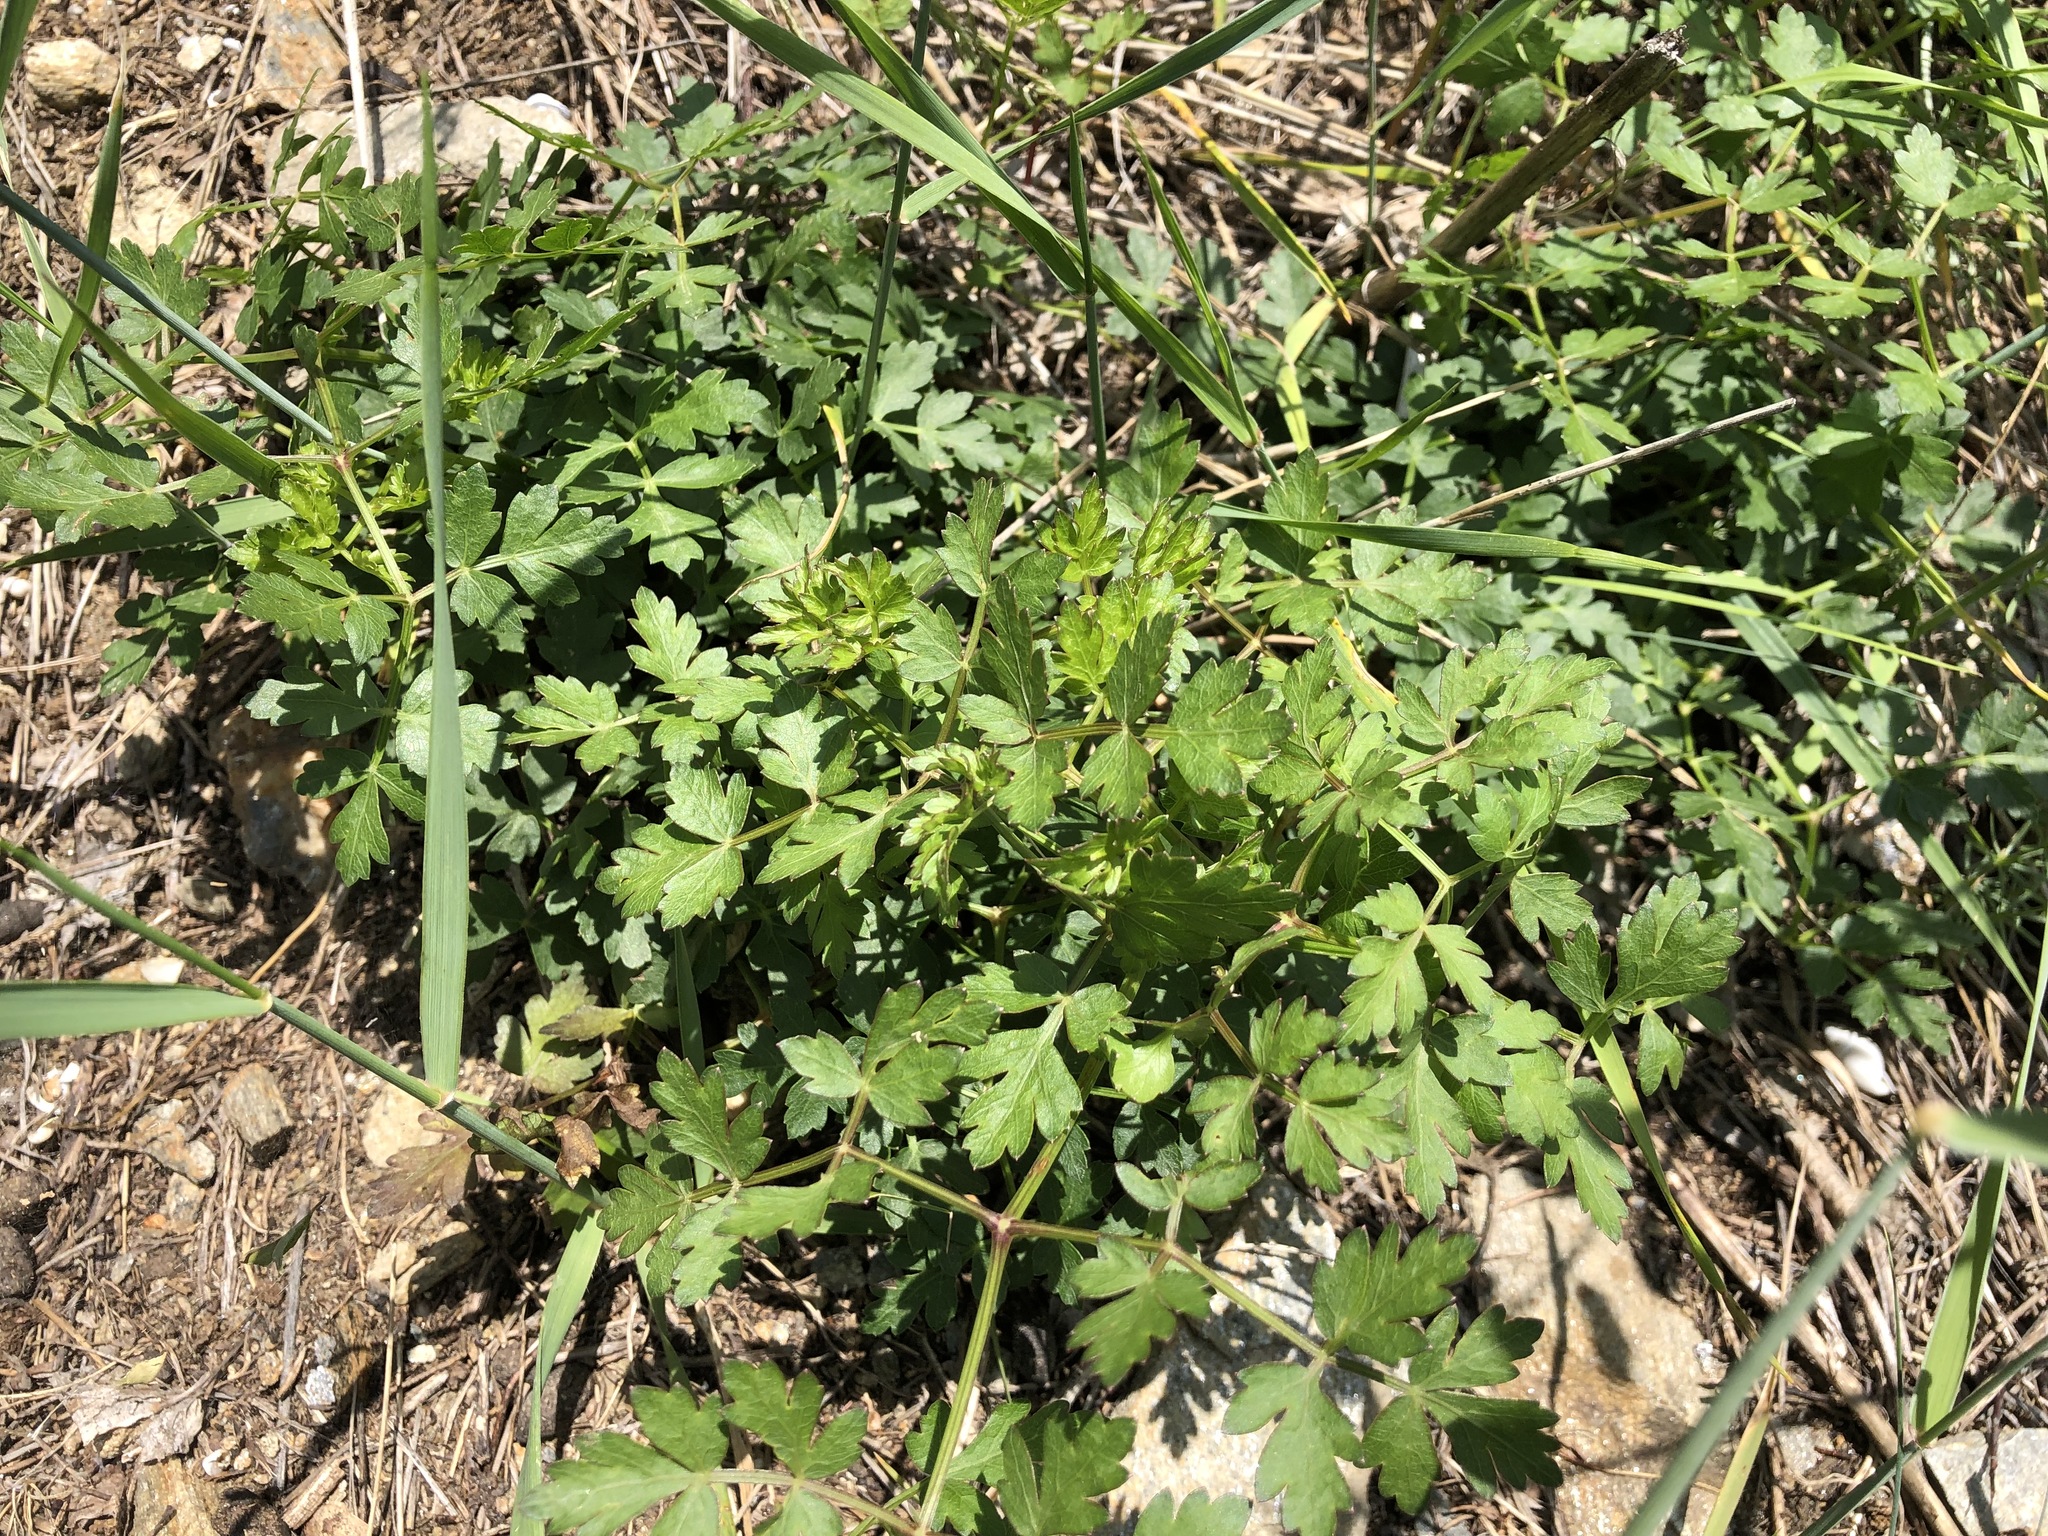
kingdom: Plantae
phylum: Tracheophyta
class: Magnoliopsida
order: Apiales
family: Apiaceae
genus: Oreoselinum
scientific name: Oreoselinum nigrum
